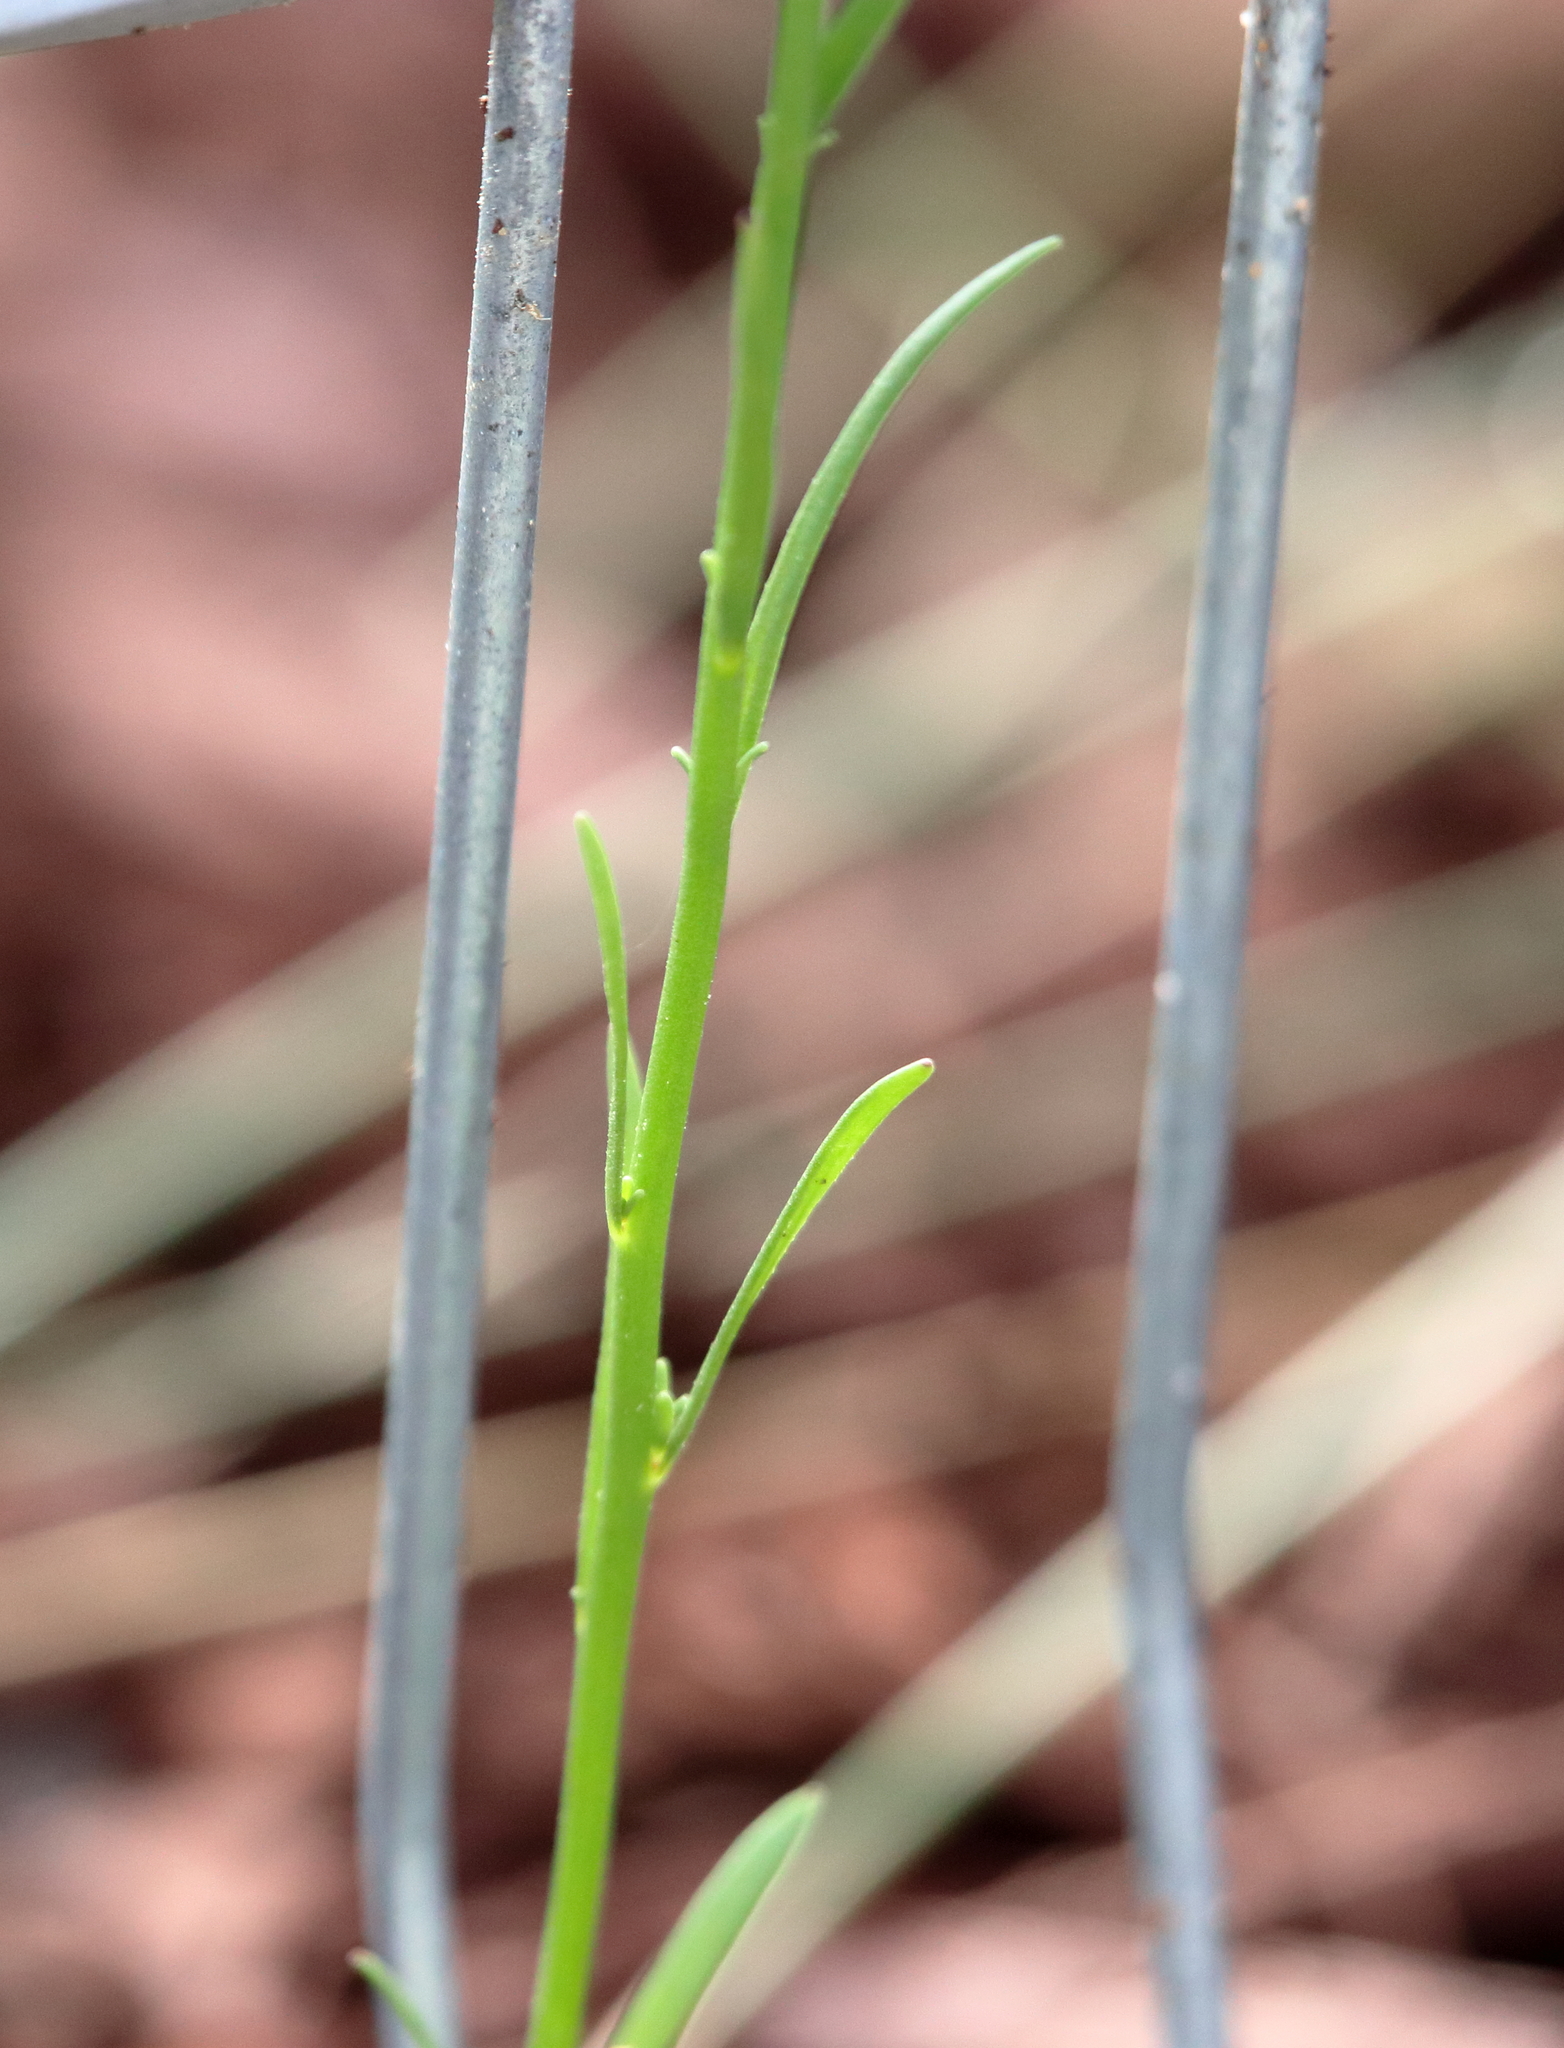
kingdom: Plantae
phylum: Tracheophyta
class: Magnoliopsida
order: Lamiales
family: Plantaginaceae
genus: Nuttallanthus
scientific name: Nuttallanthus canadensis
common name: Blue toadflax
